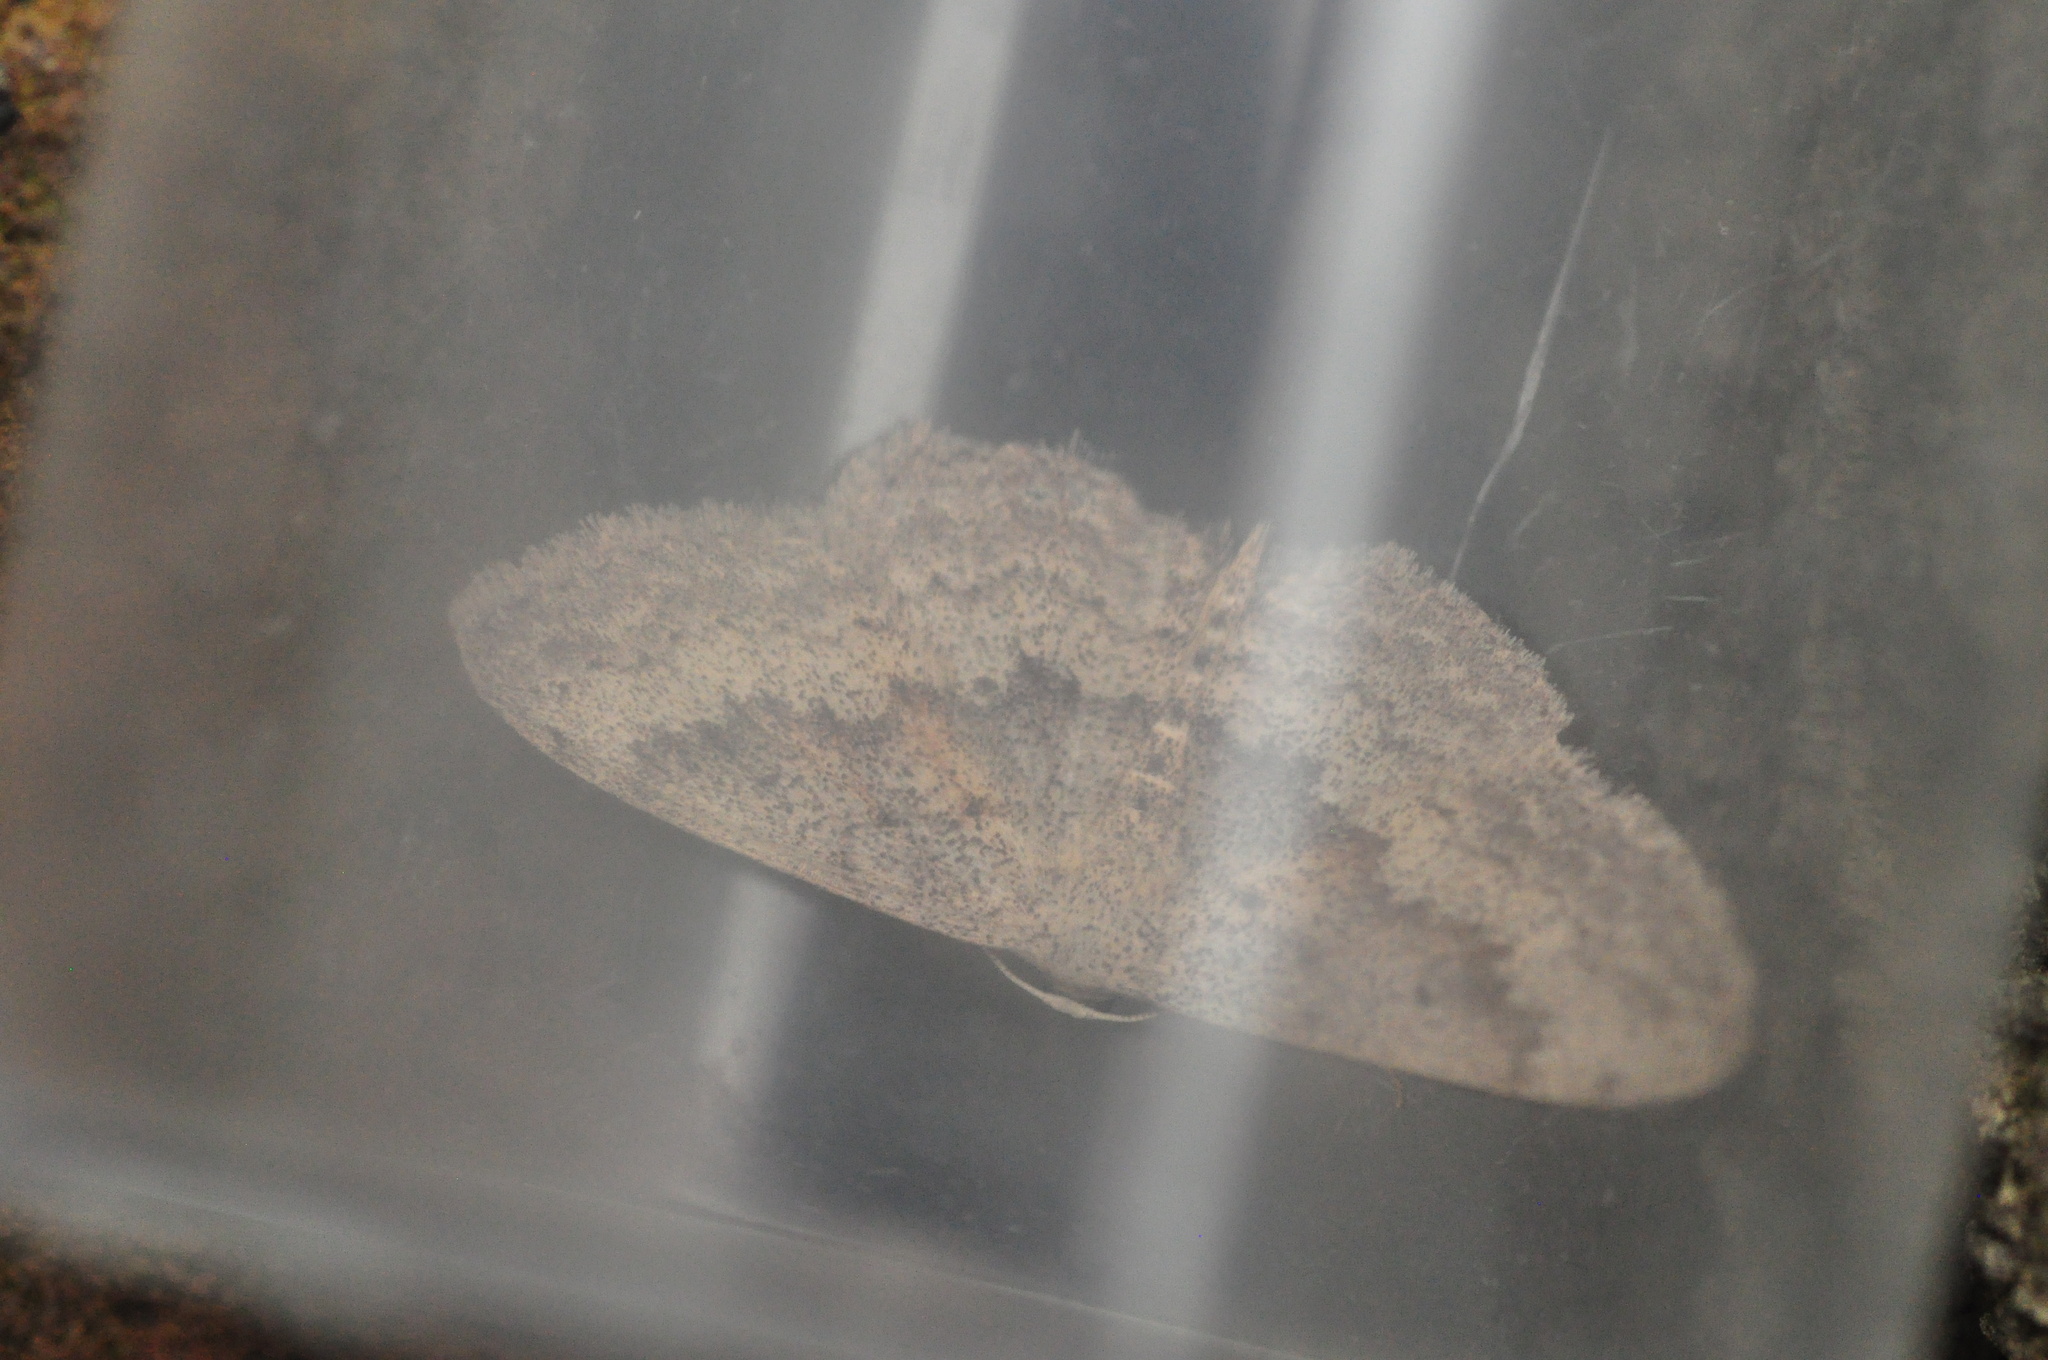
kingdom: Animalia
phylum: Arthropoda
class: Insecta
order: Lepidoptera
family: Geometridae
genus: Scopula
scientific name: Scopula guancharia
